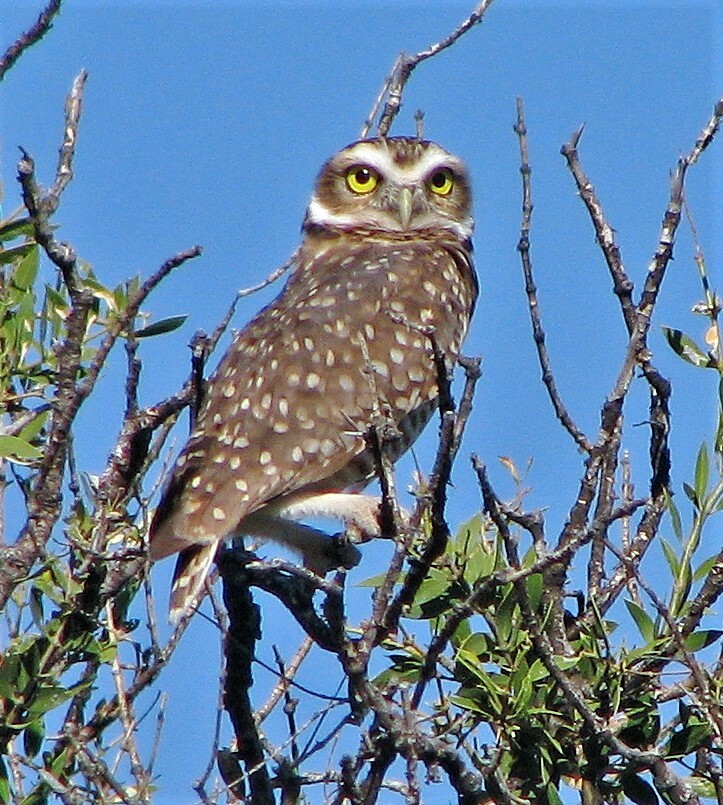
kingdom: Animalia
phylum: Chordata
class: Aves
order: Strigiformes
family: Strigidae
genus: Athene
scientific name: Athene cunicularia
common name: Burrowing owl
